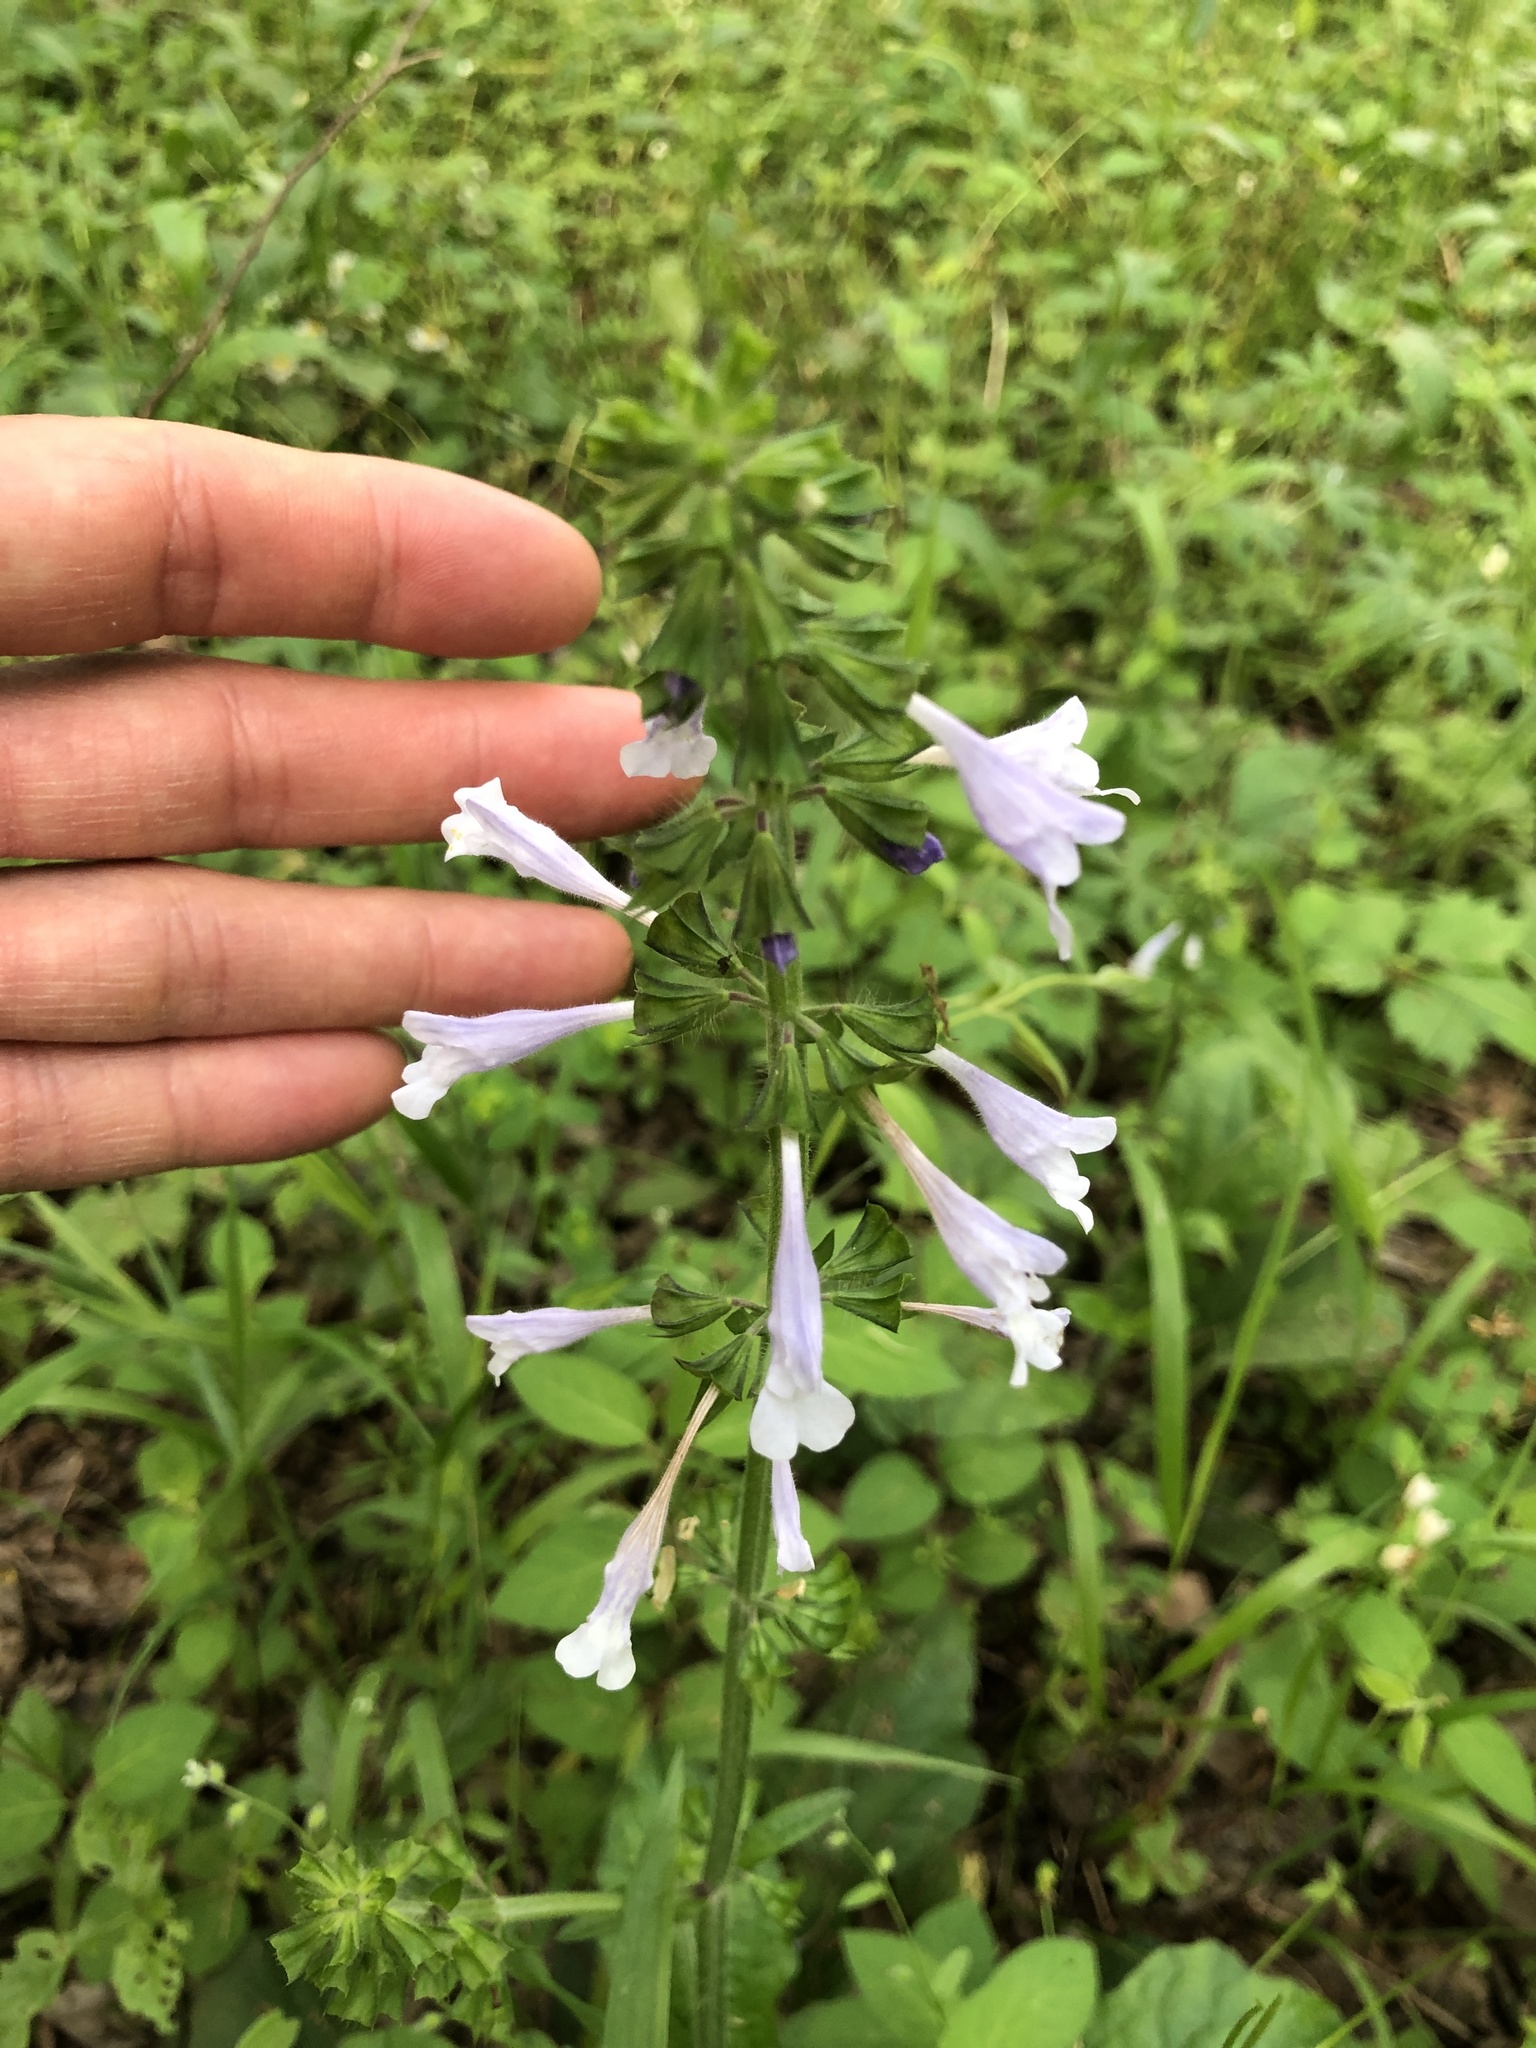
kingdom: Plantae
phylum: Tracheophyta
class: Magnoliopsida
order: Lamiales
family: Lamiaceae
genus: Salvia
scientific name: Salvia lyrata
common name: Cancerweed
